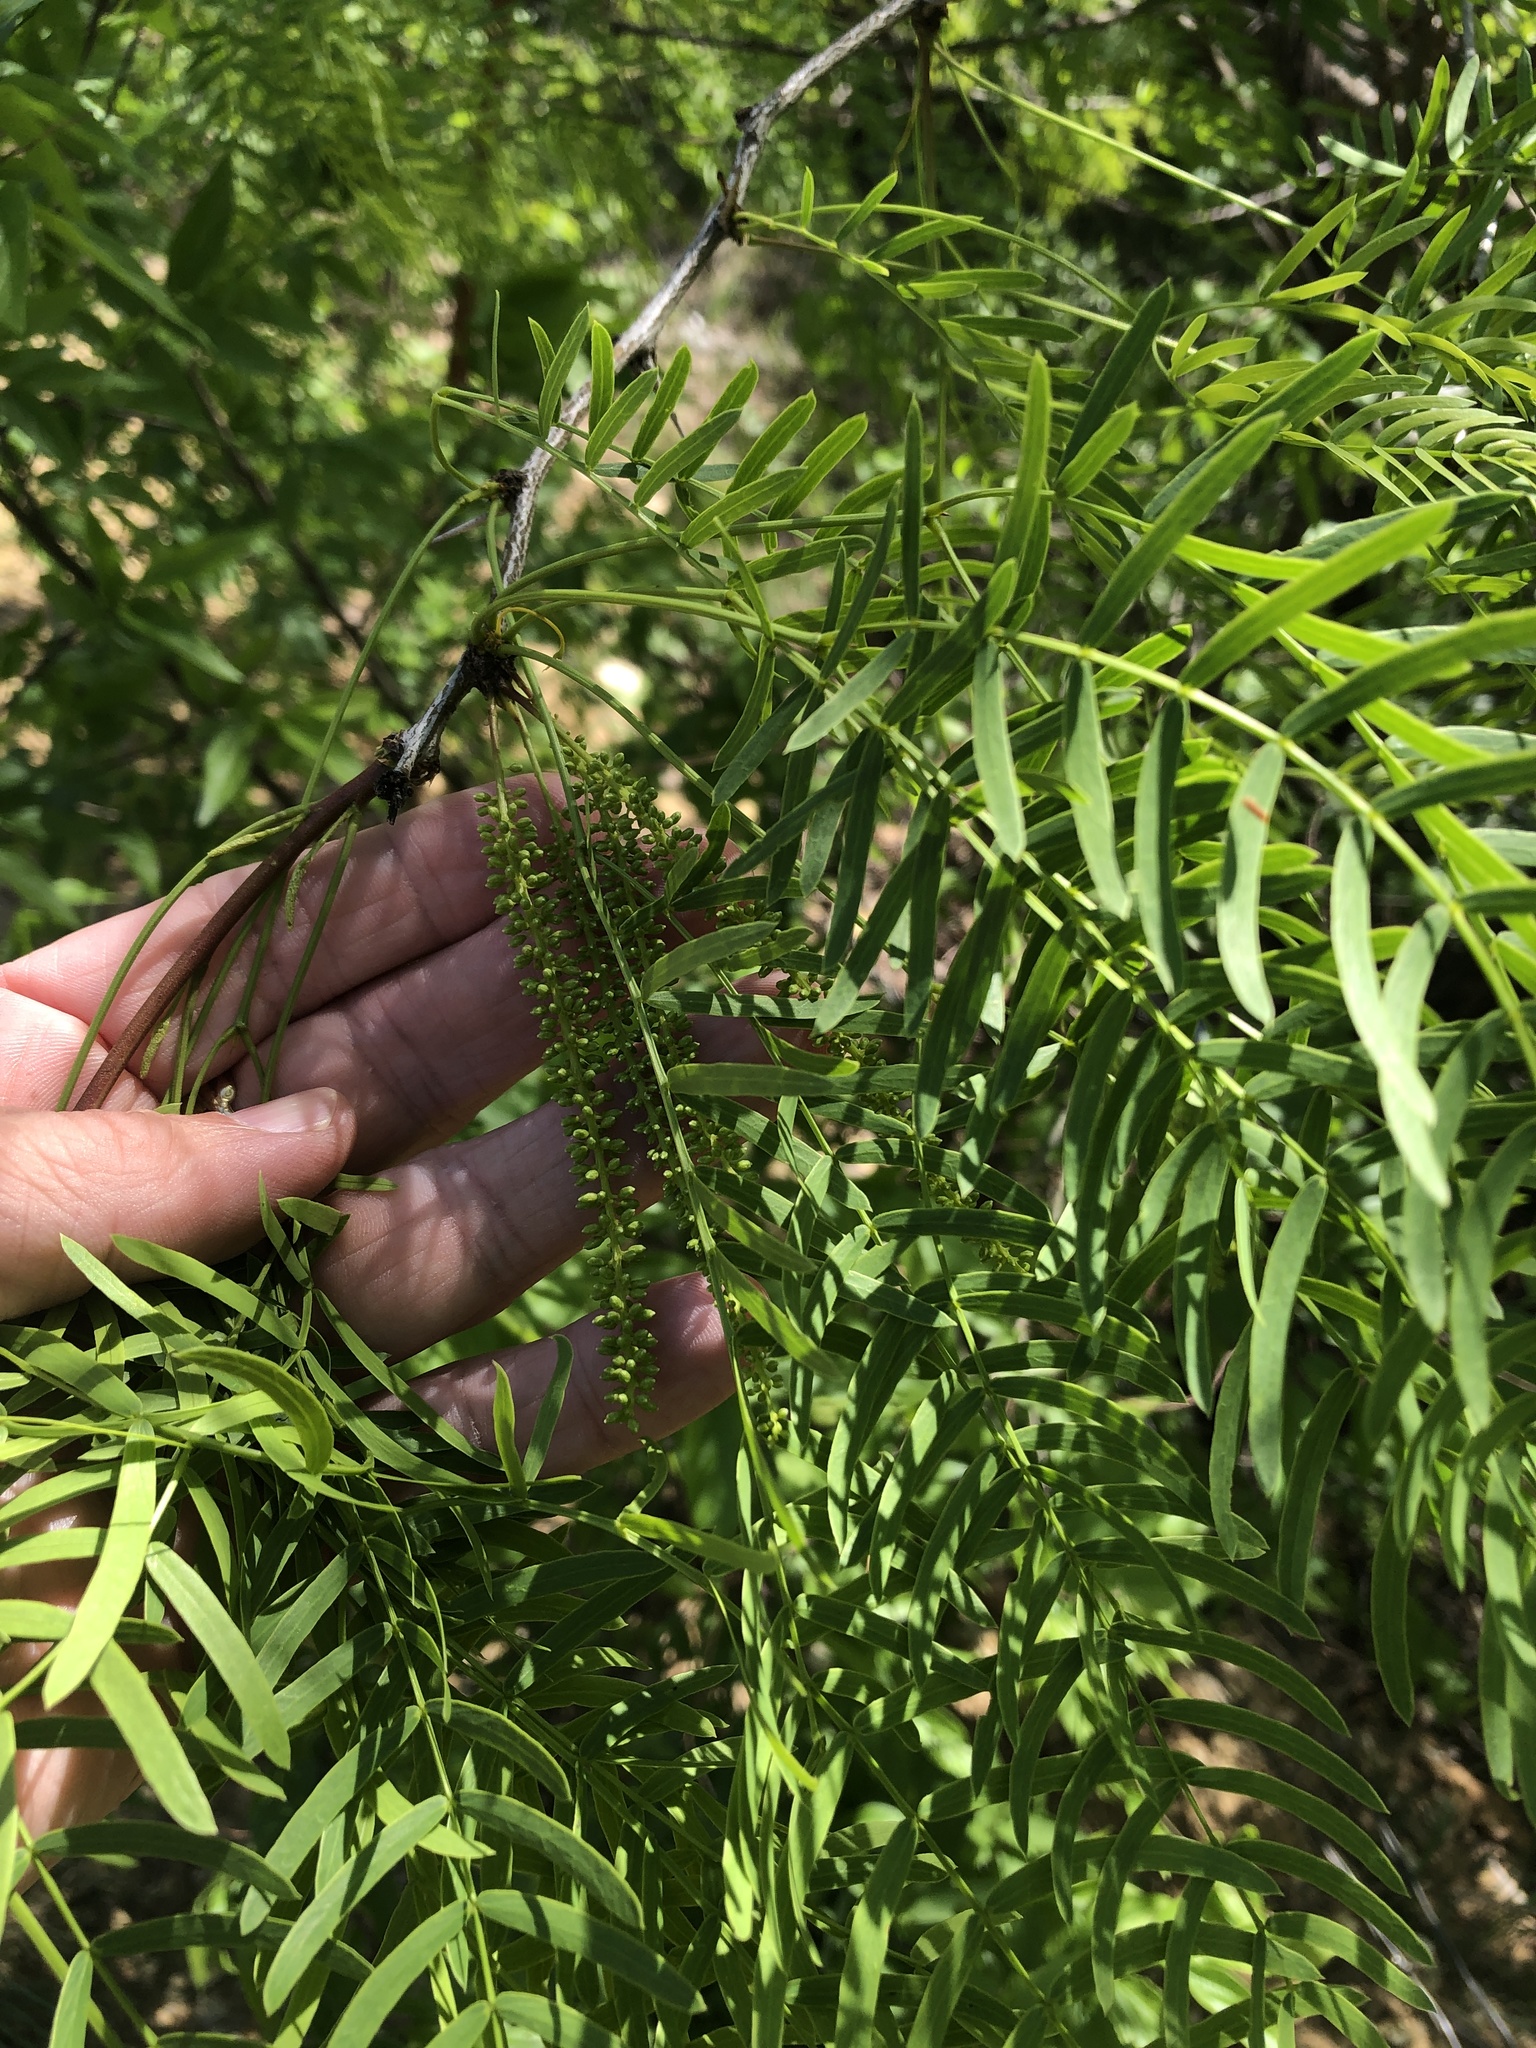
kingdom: Plantae
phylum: Tracheophyta
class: Magnoliopsida
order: Fabales
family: Fabaceae
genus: Prosopis
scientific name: Prosopis glandulosa
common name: Honey mesquite
